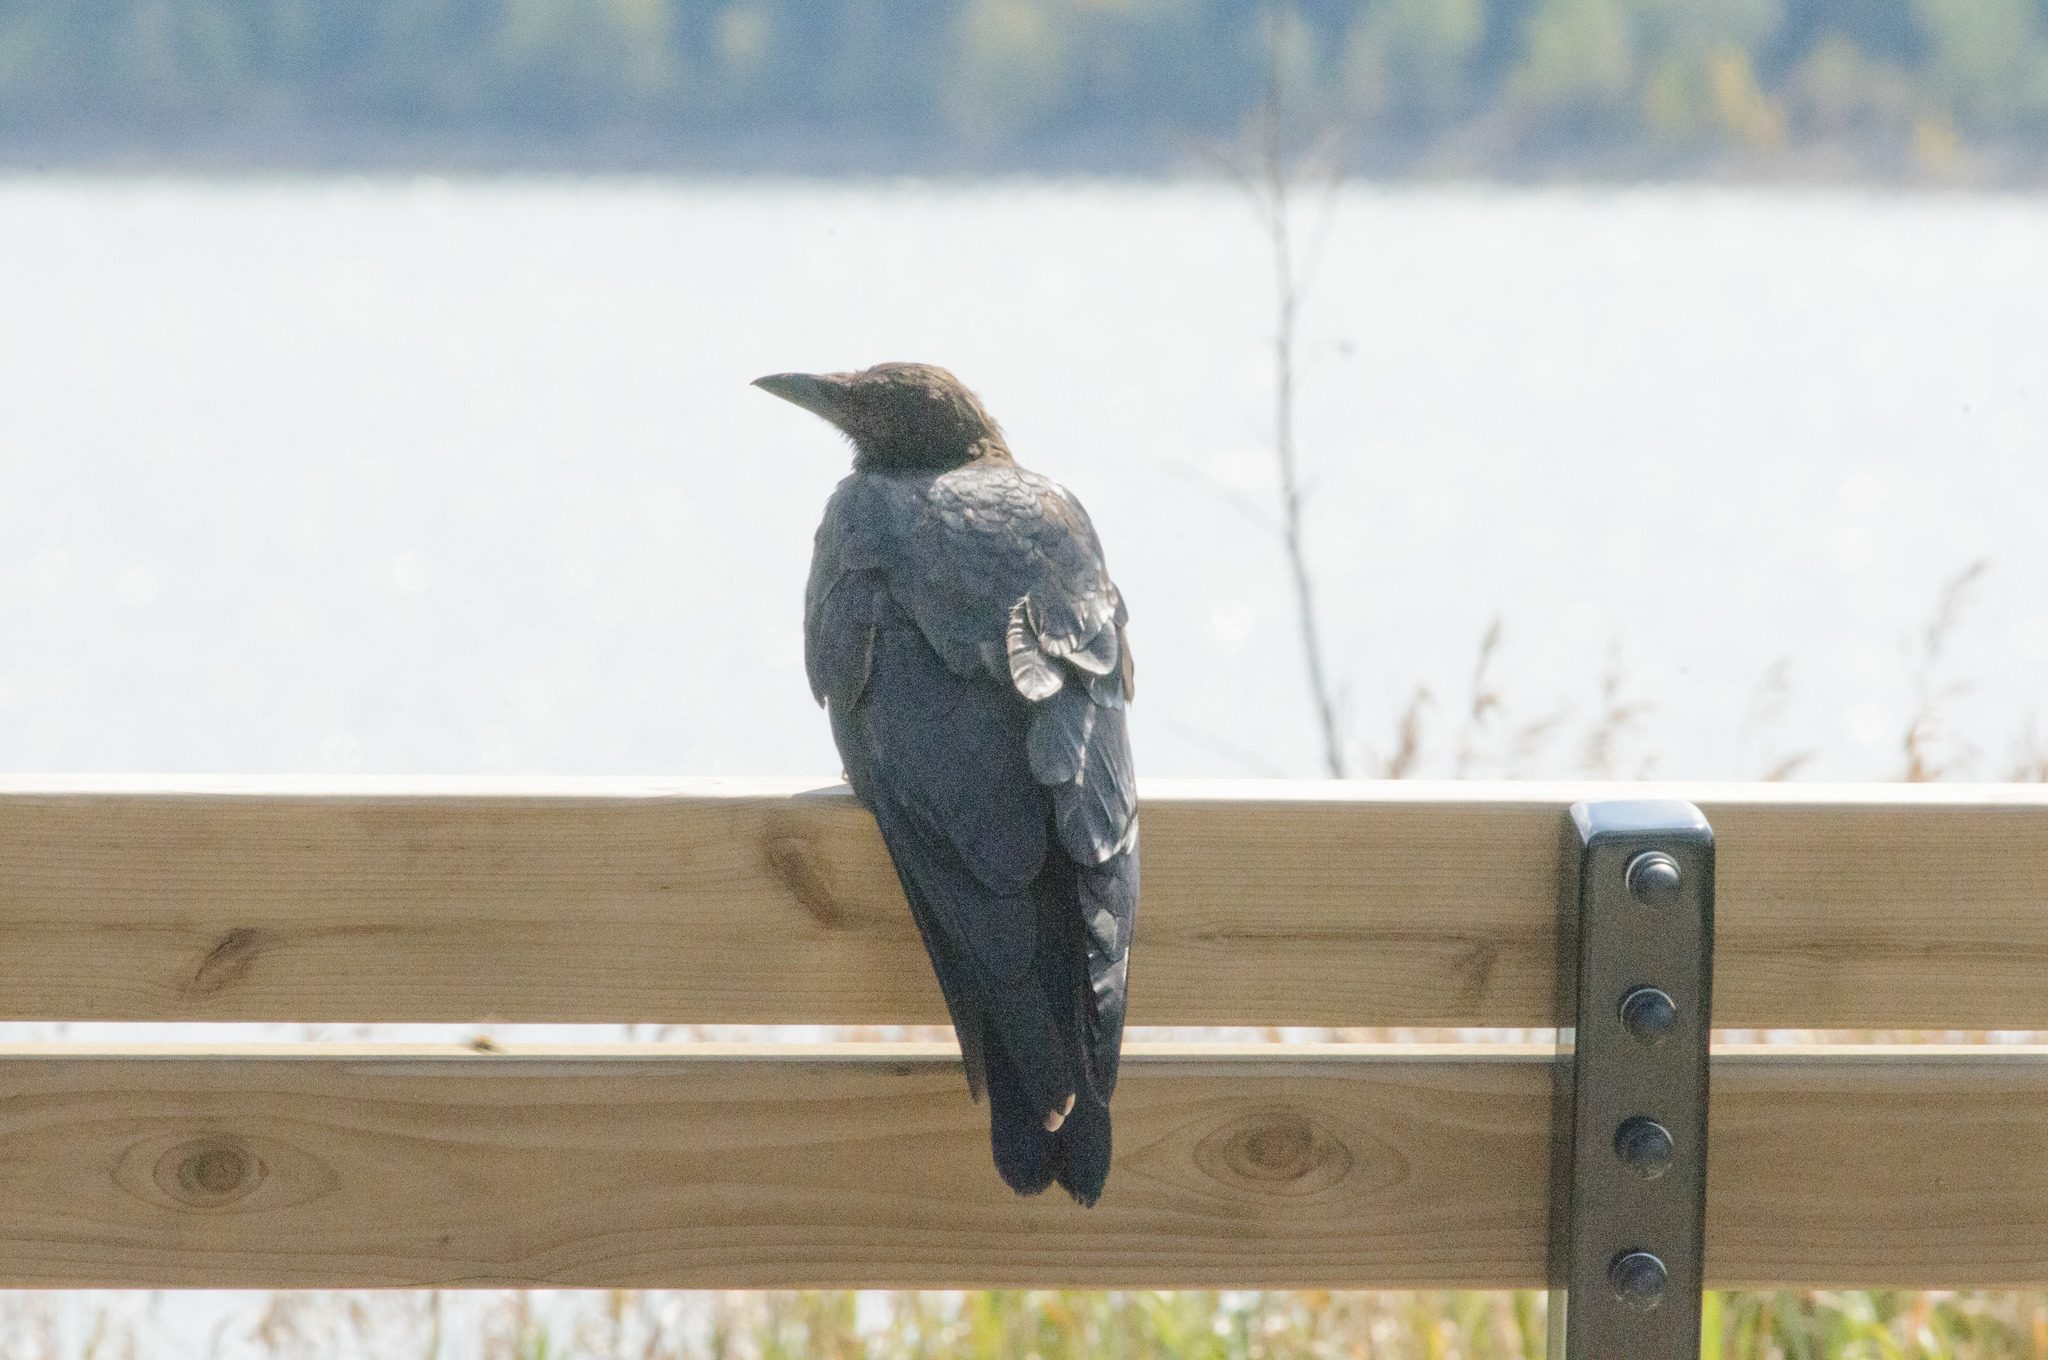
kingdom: Animalia
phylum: Chordata
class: Aves
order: Passeriformes
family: Corvidae
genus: Corvus
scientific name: Corvus brachyrhynchos
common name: American crow
